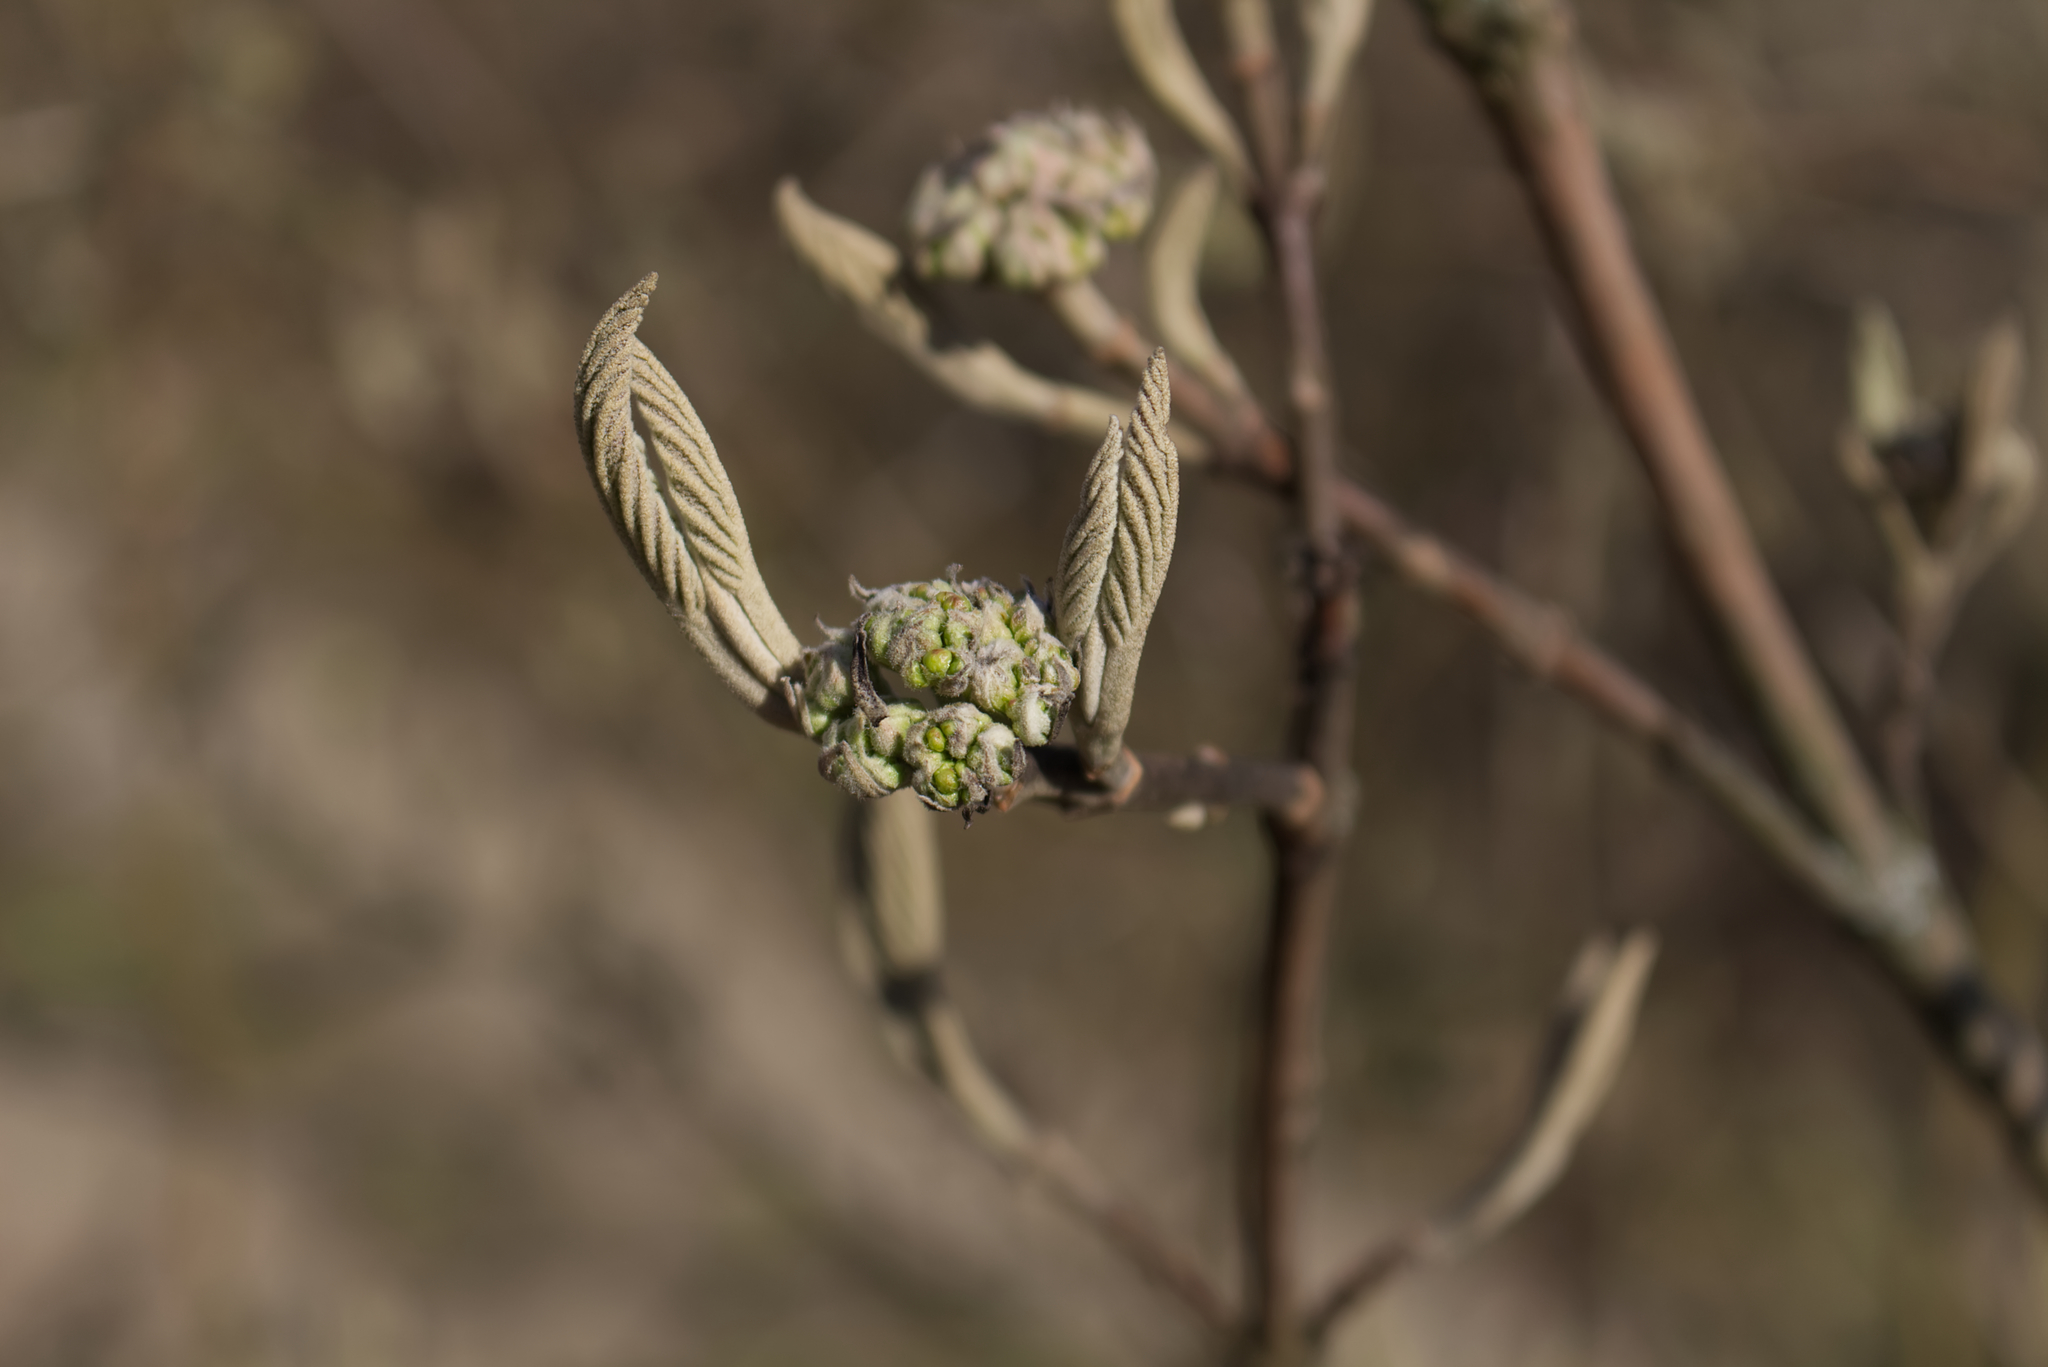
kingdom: Plantae
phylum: Tracheophyta
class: Magnoliopsida
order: Dipsacales
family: Viburnaceae
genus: Viburnum
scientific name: Viburnum lantana
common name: Wayfaring tree
